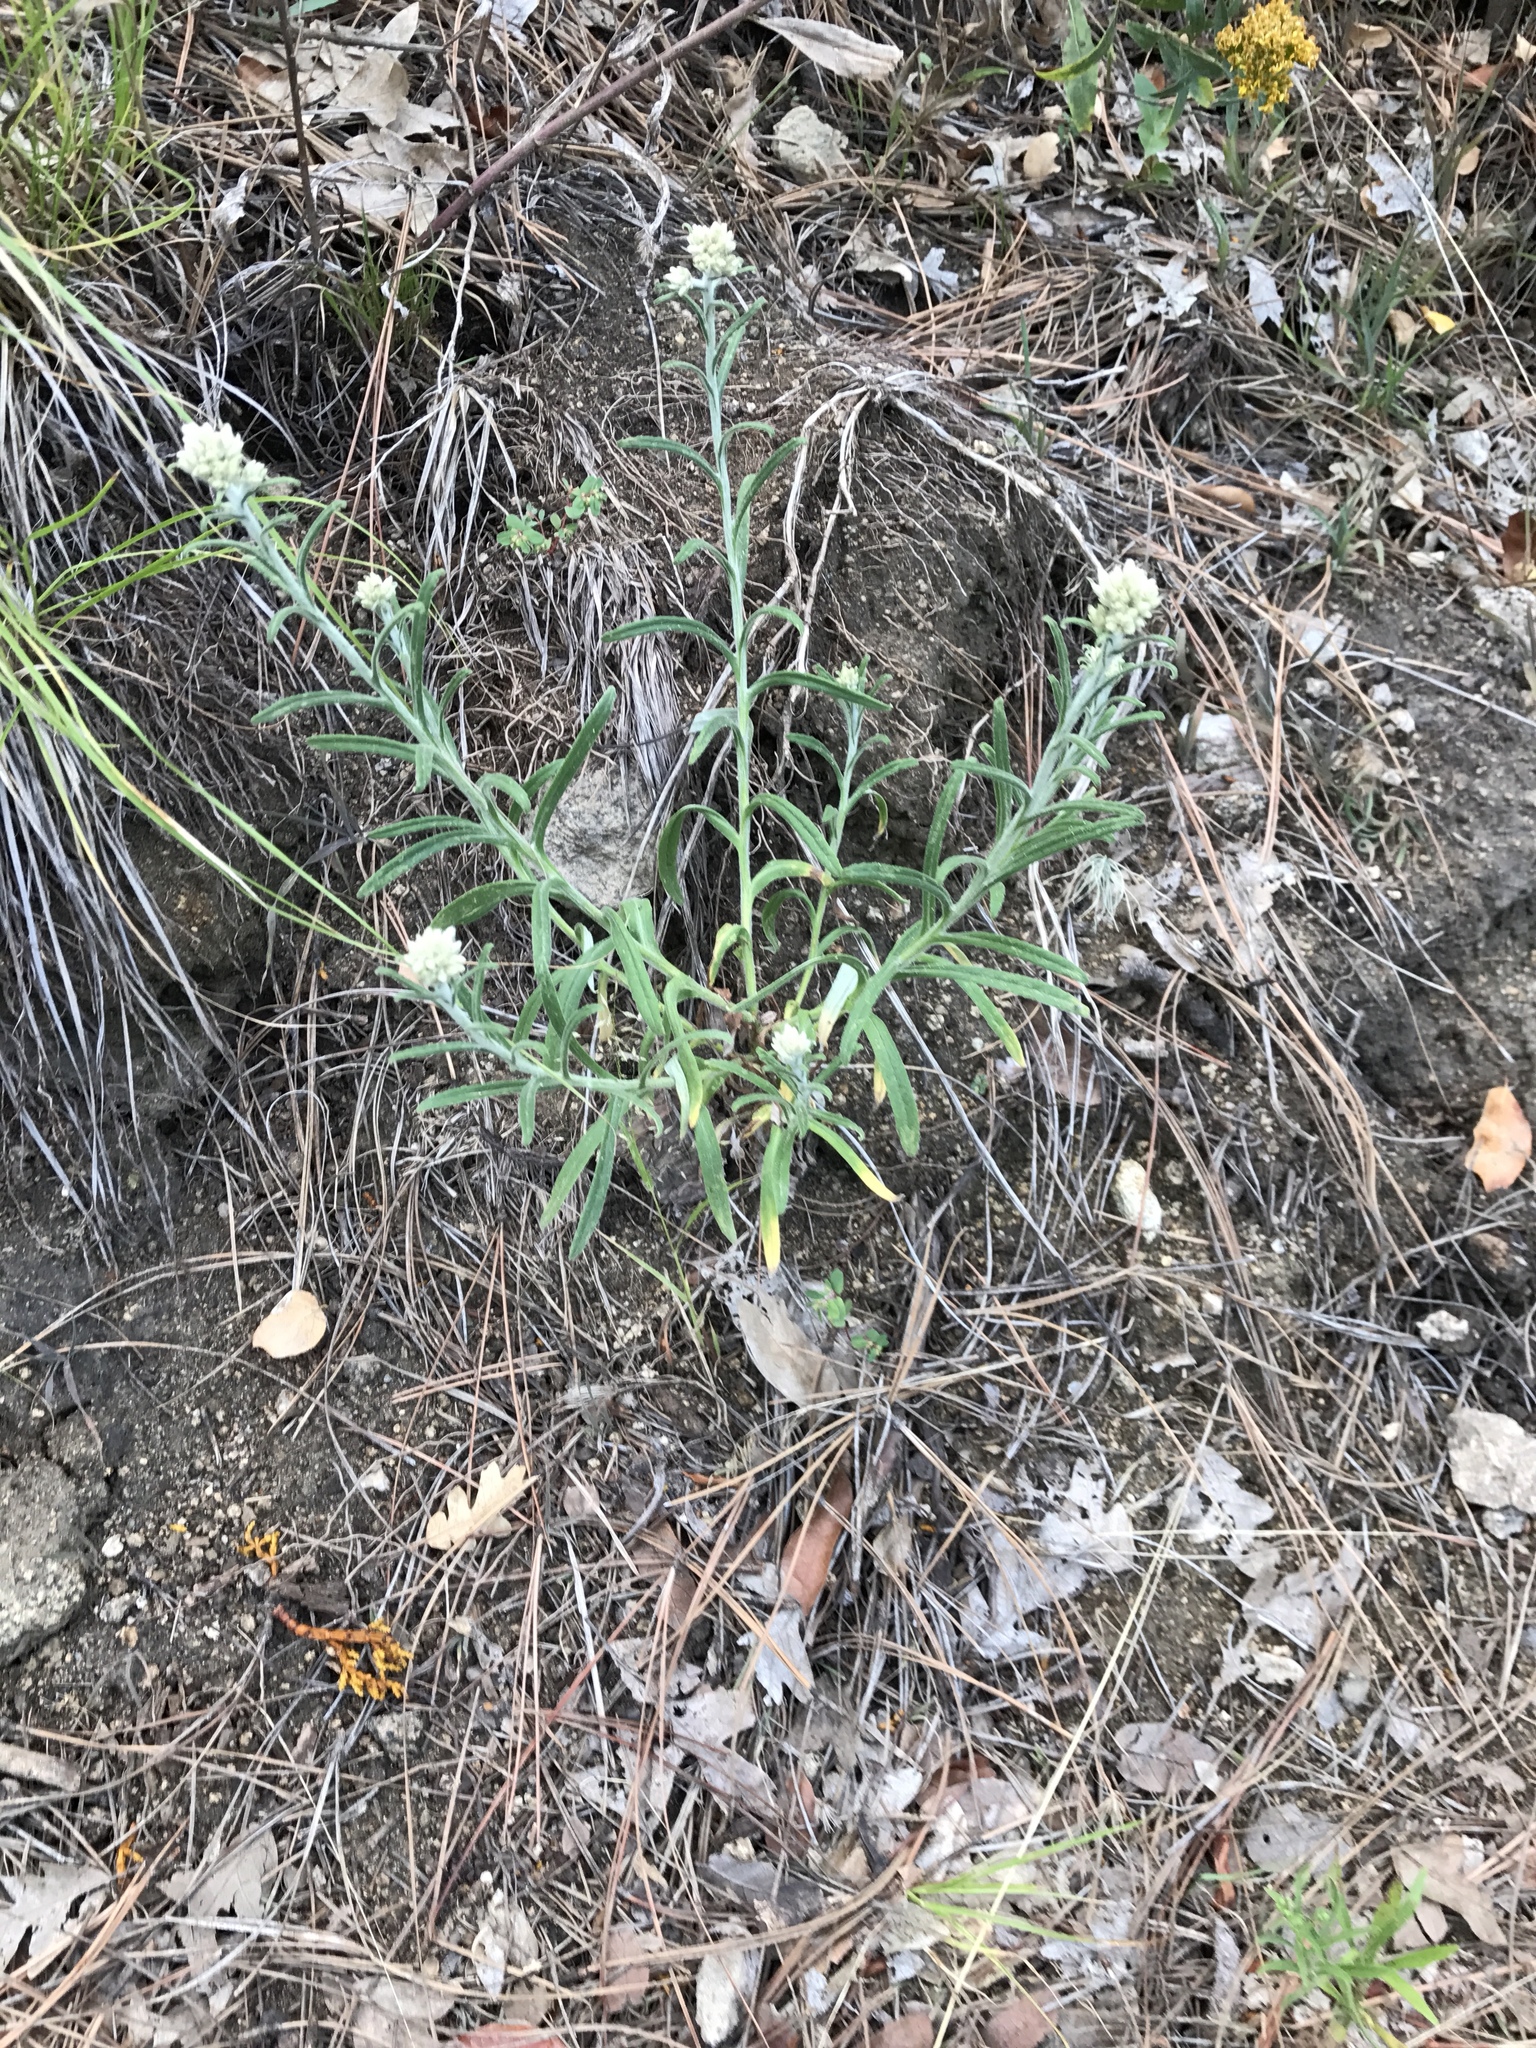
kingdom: Plantae
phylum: Tracheophyta
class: Magnoliopsida
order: Asterales
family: Asteraceae
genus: Pseudognaphalium
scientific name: Pseudognaphalium leucocephalum
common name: White cudweed
